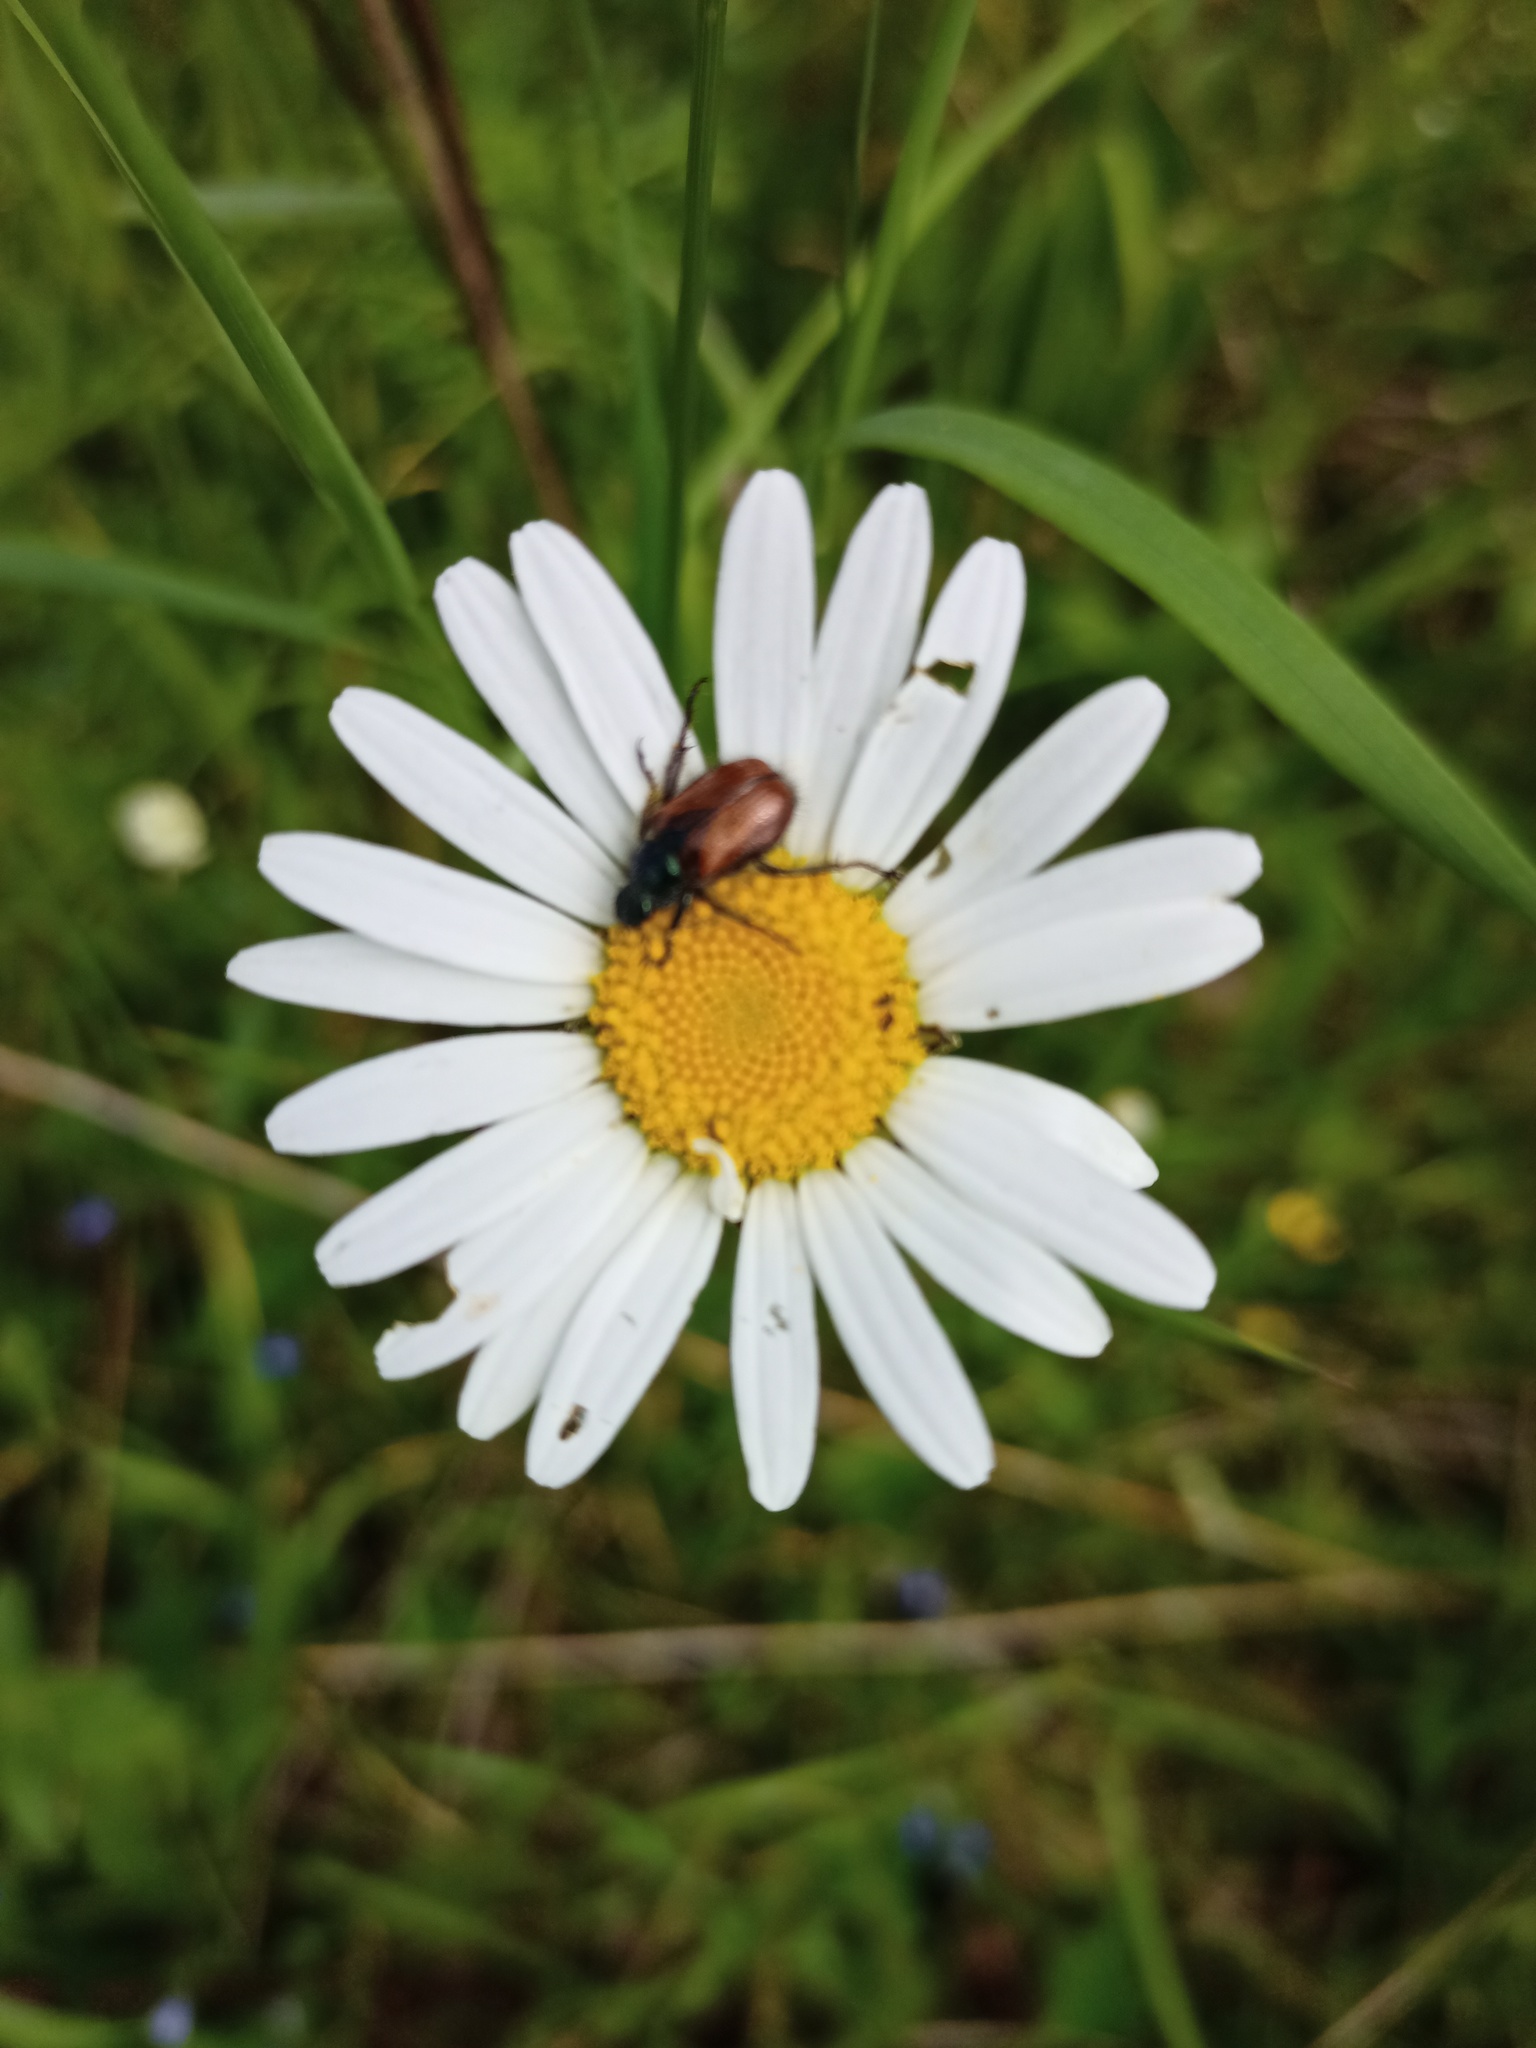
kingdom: Animalia
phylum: Arthropoda
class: Insecta
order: Coleoptera
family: Scarabaeidae
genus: Phyllopertha
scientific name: Phyllopertha horticola
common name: Garden chafer
